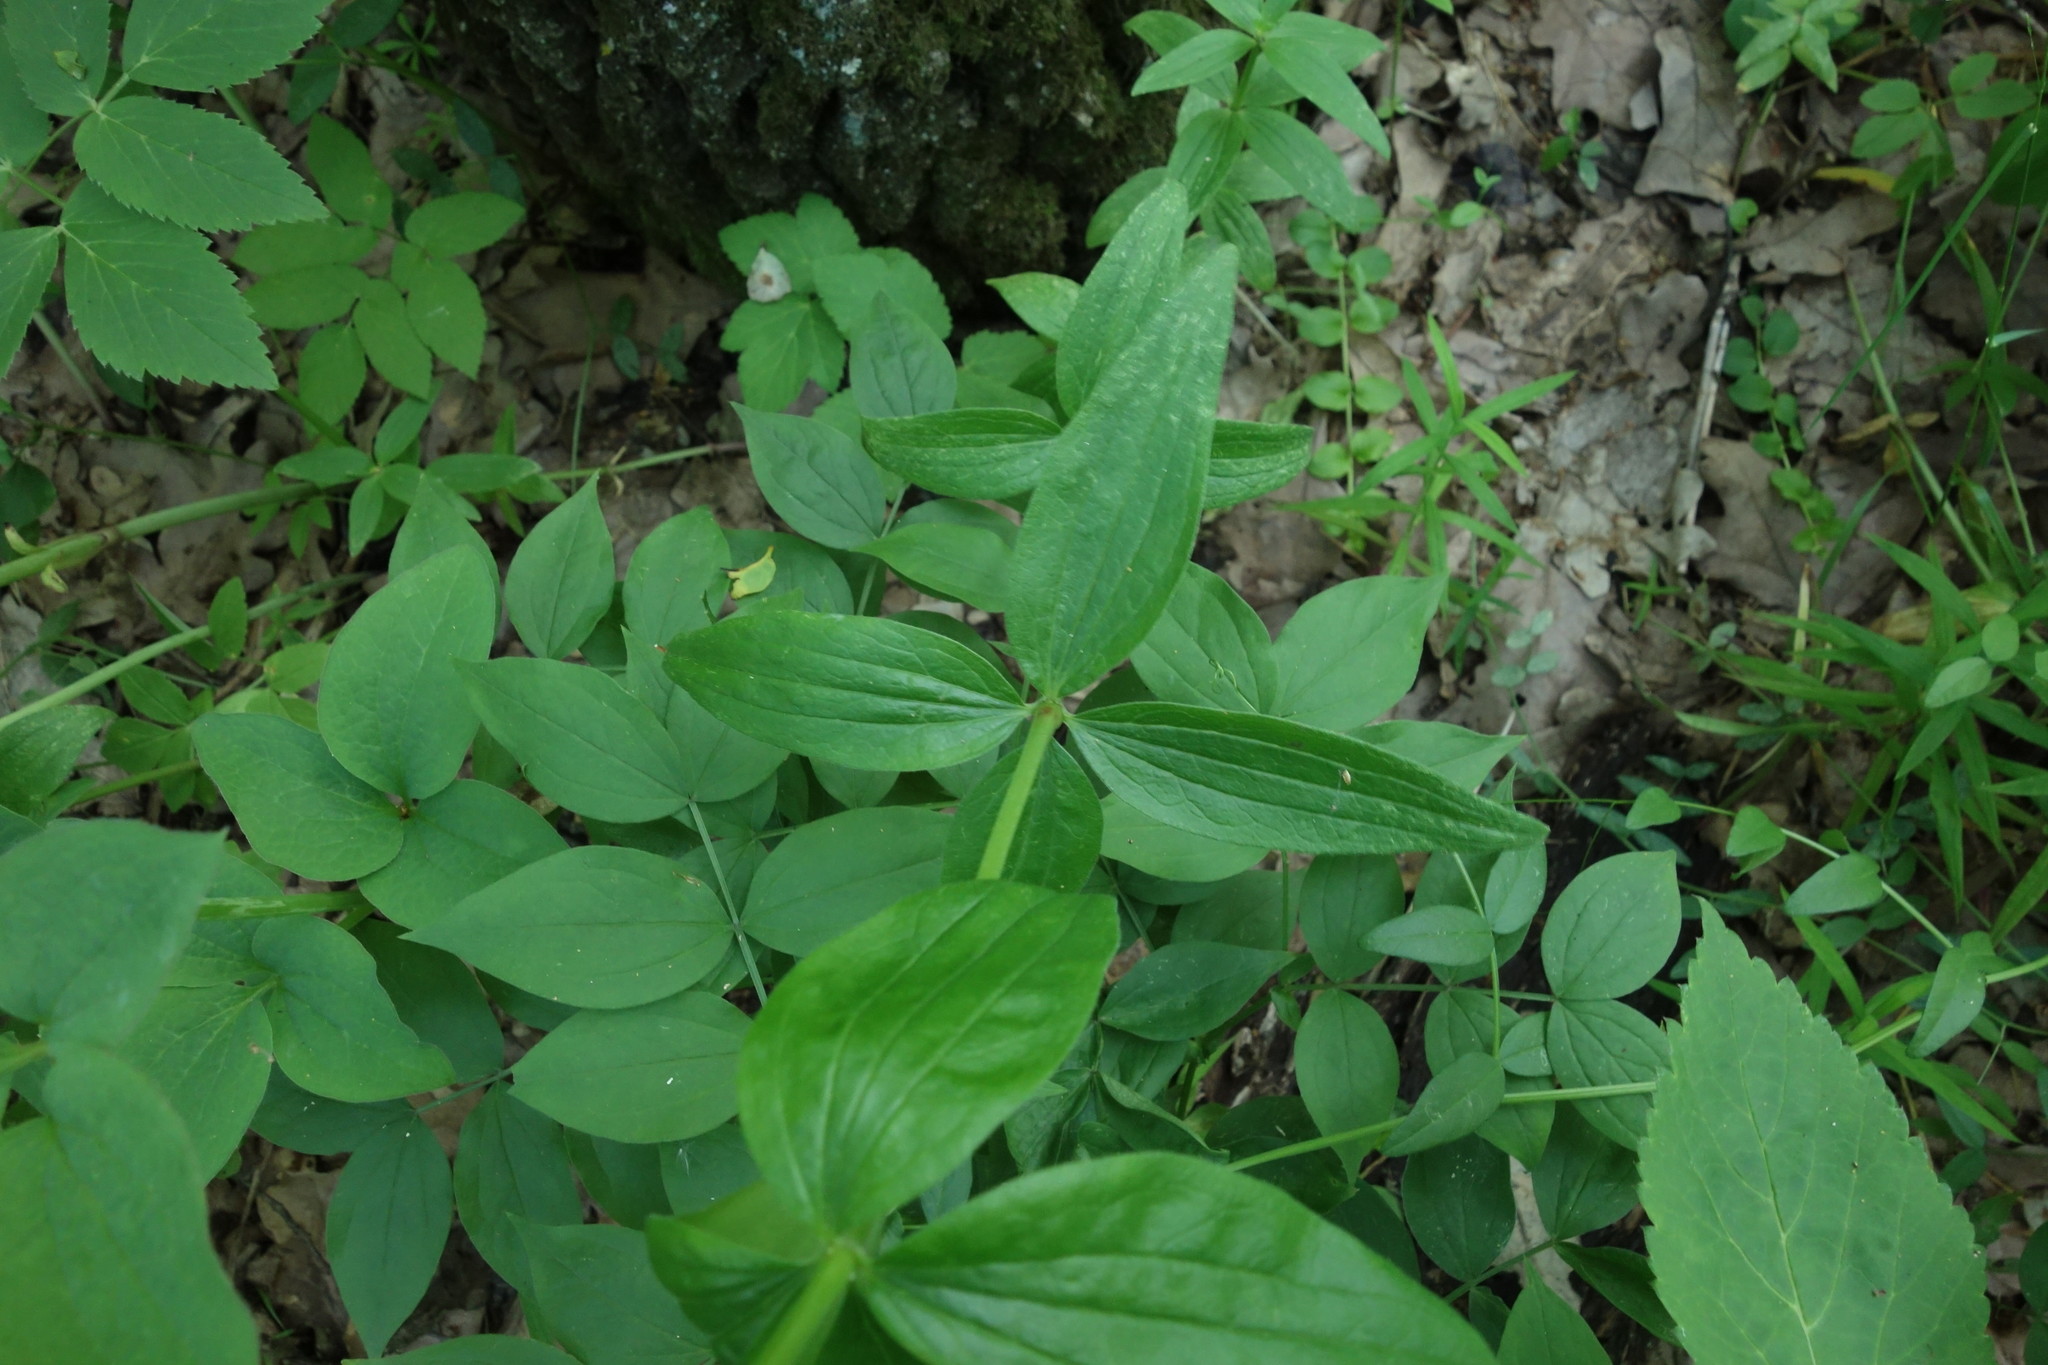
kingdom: Plantae
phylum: Tracheophyta
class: Magnoliopsida
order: Gentianales
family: Rubiaceae
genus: Galium
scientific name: Galium rubioides
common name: European bedstraw
